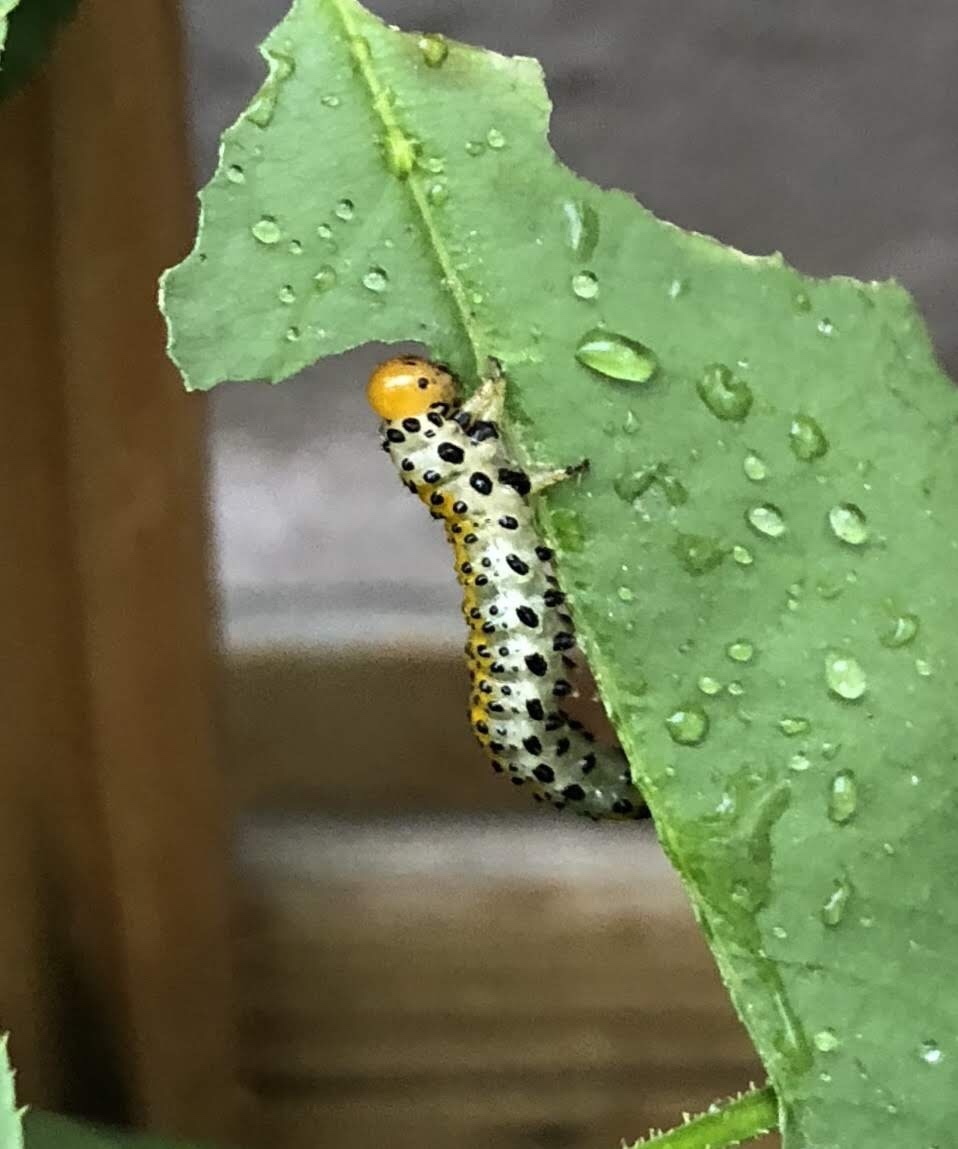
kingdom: Animalia
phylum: Arthropoda
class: Insecta
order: Hymenoptera
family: Argidae
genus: Arge
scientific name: Arge ochropus
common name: Argid sawfly
